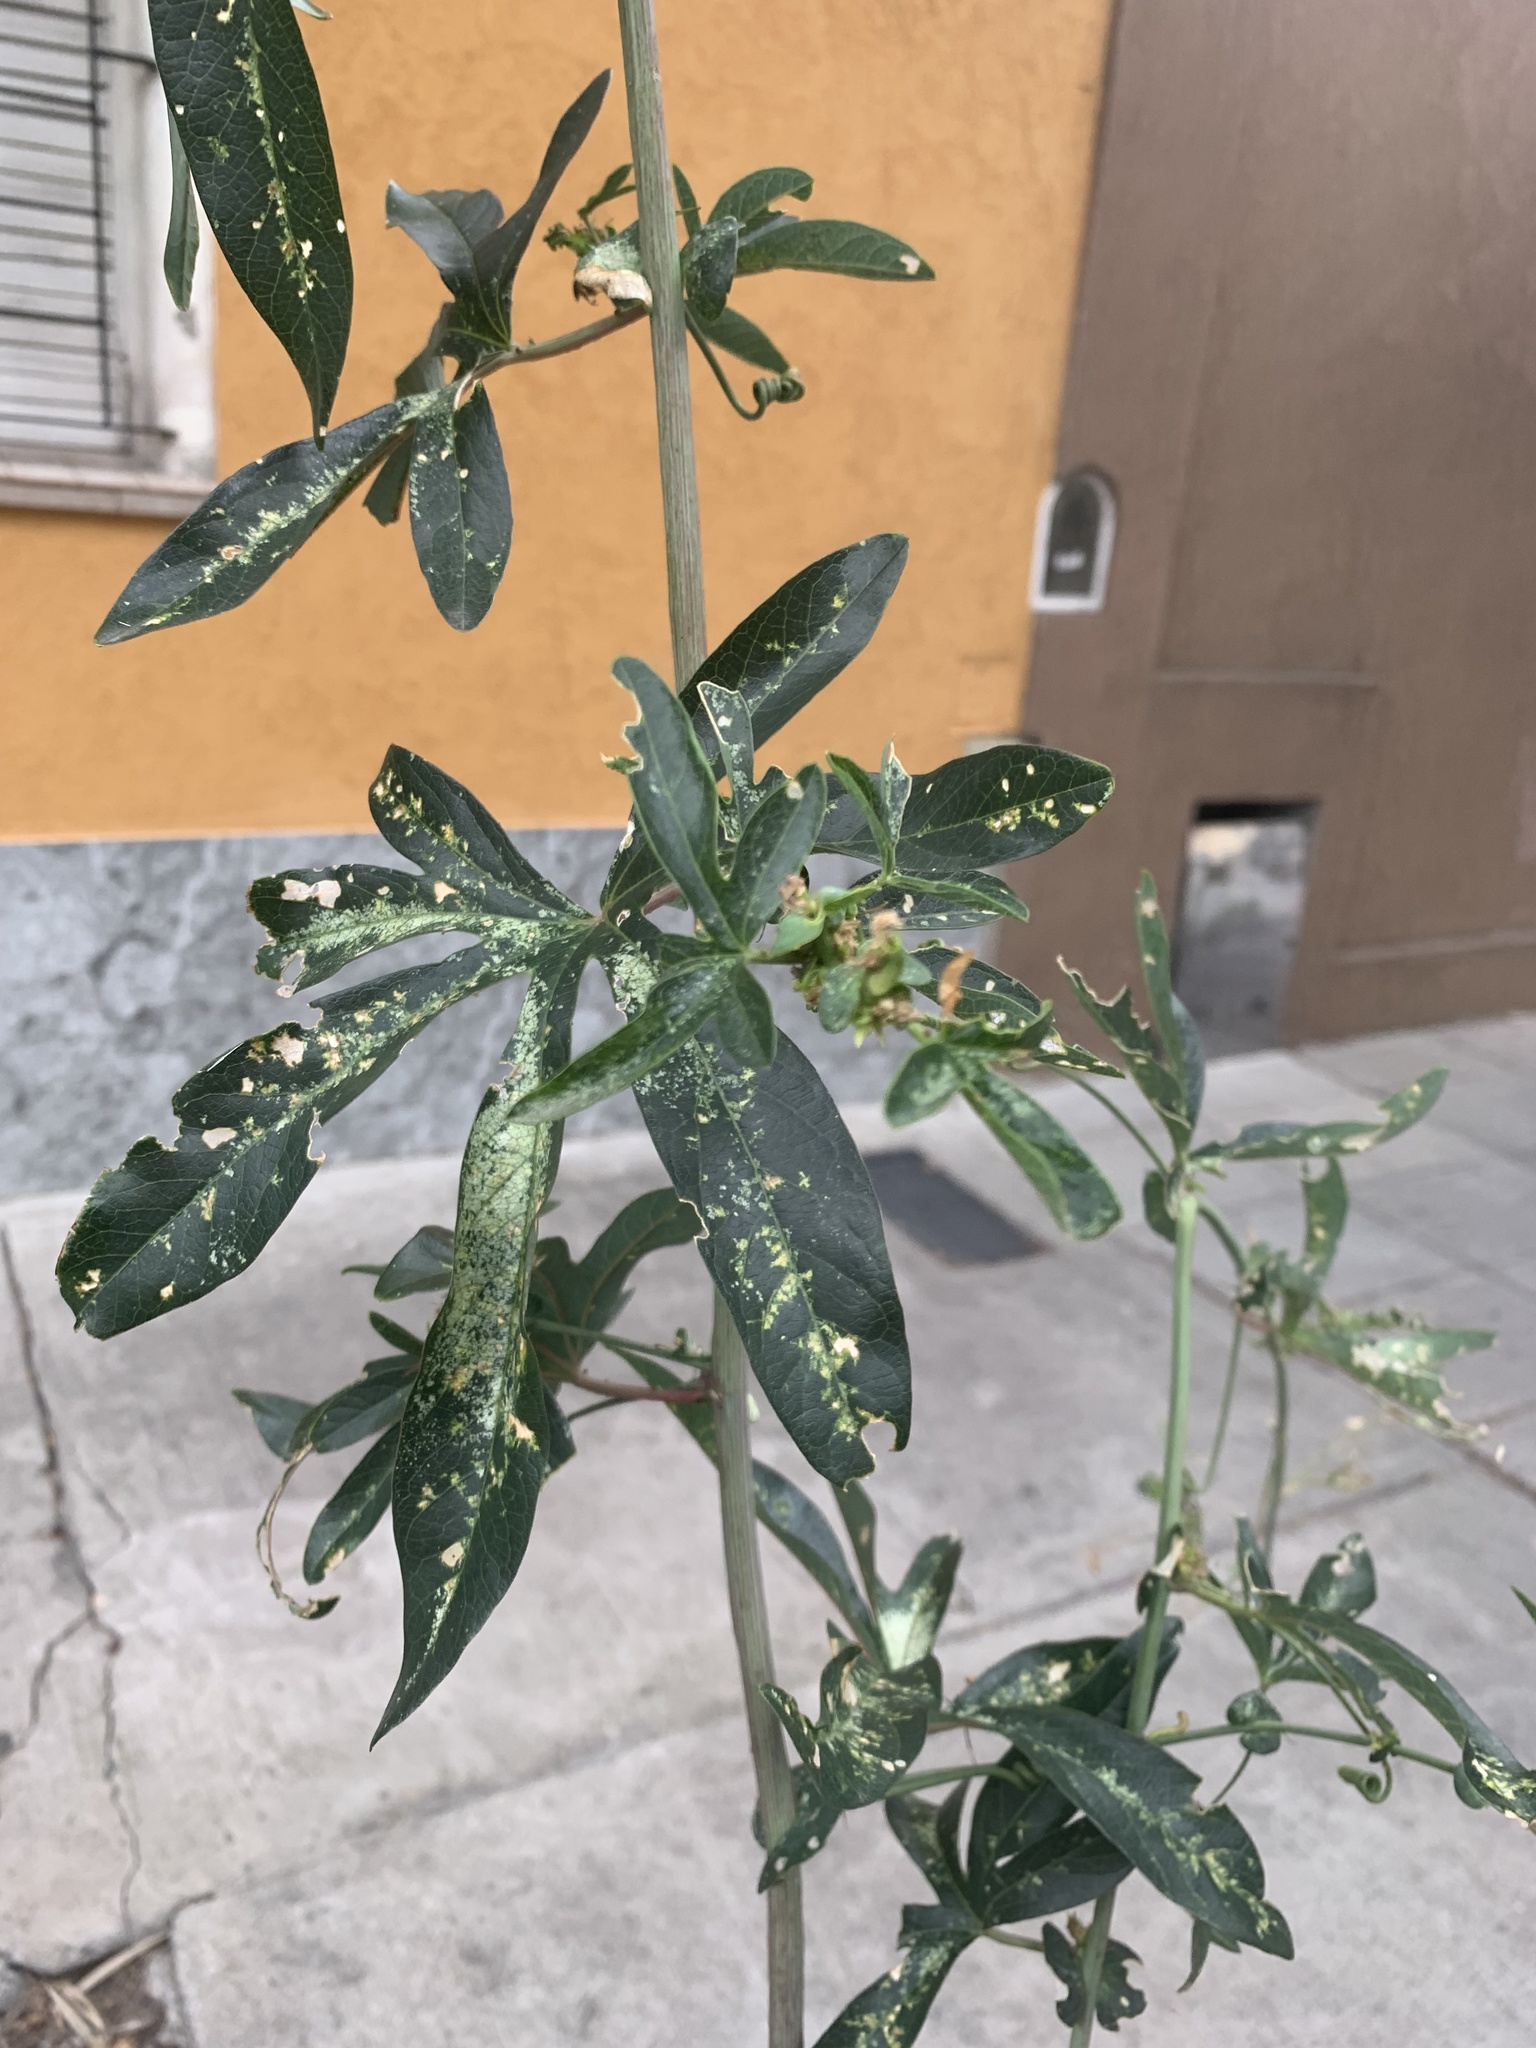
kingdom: Plantae
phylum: Tracheophyta
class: Magnoliopsida
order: Malpighiales
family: Passifloraceae
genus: Passiflora
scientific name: Passiflora caerulea
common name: Blue passionflower
